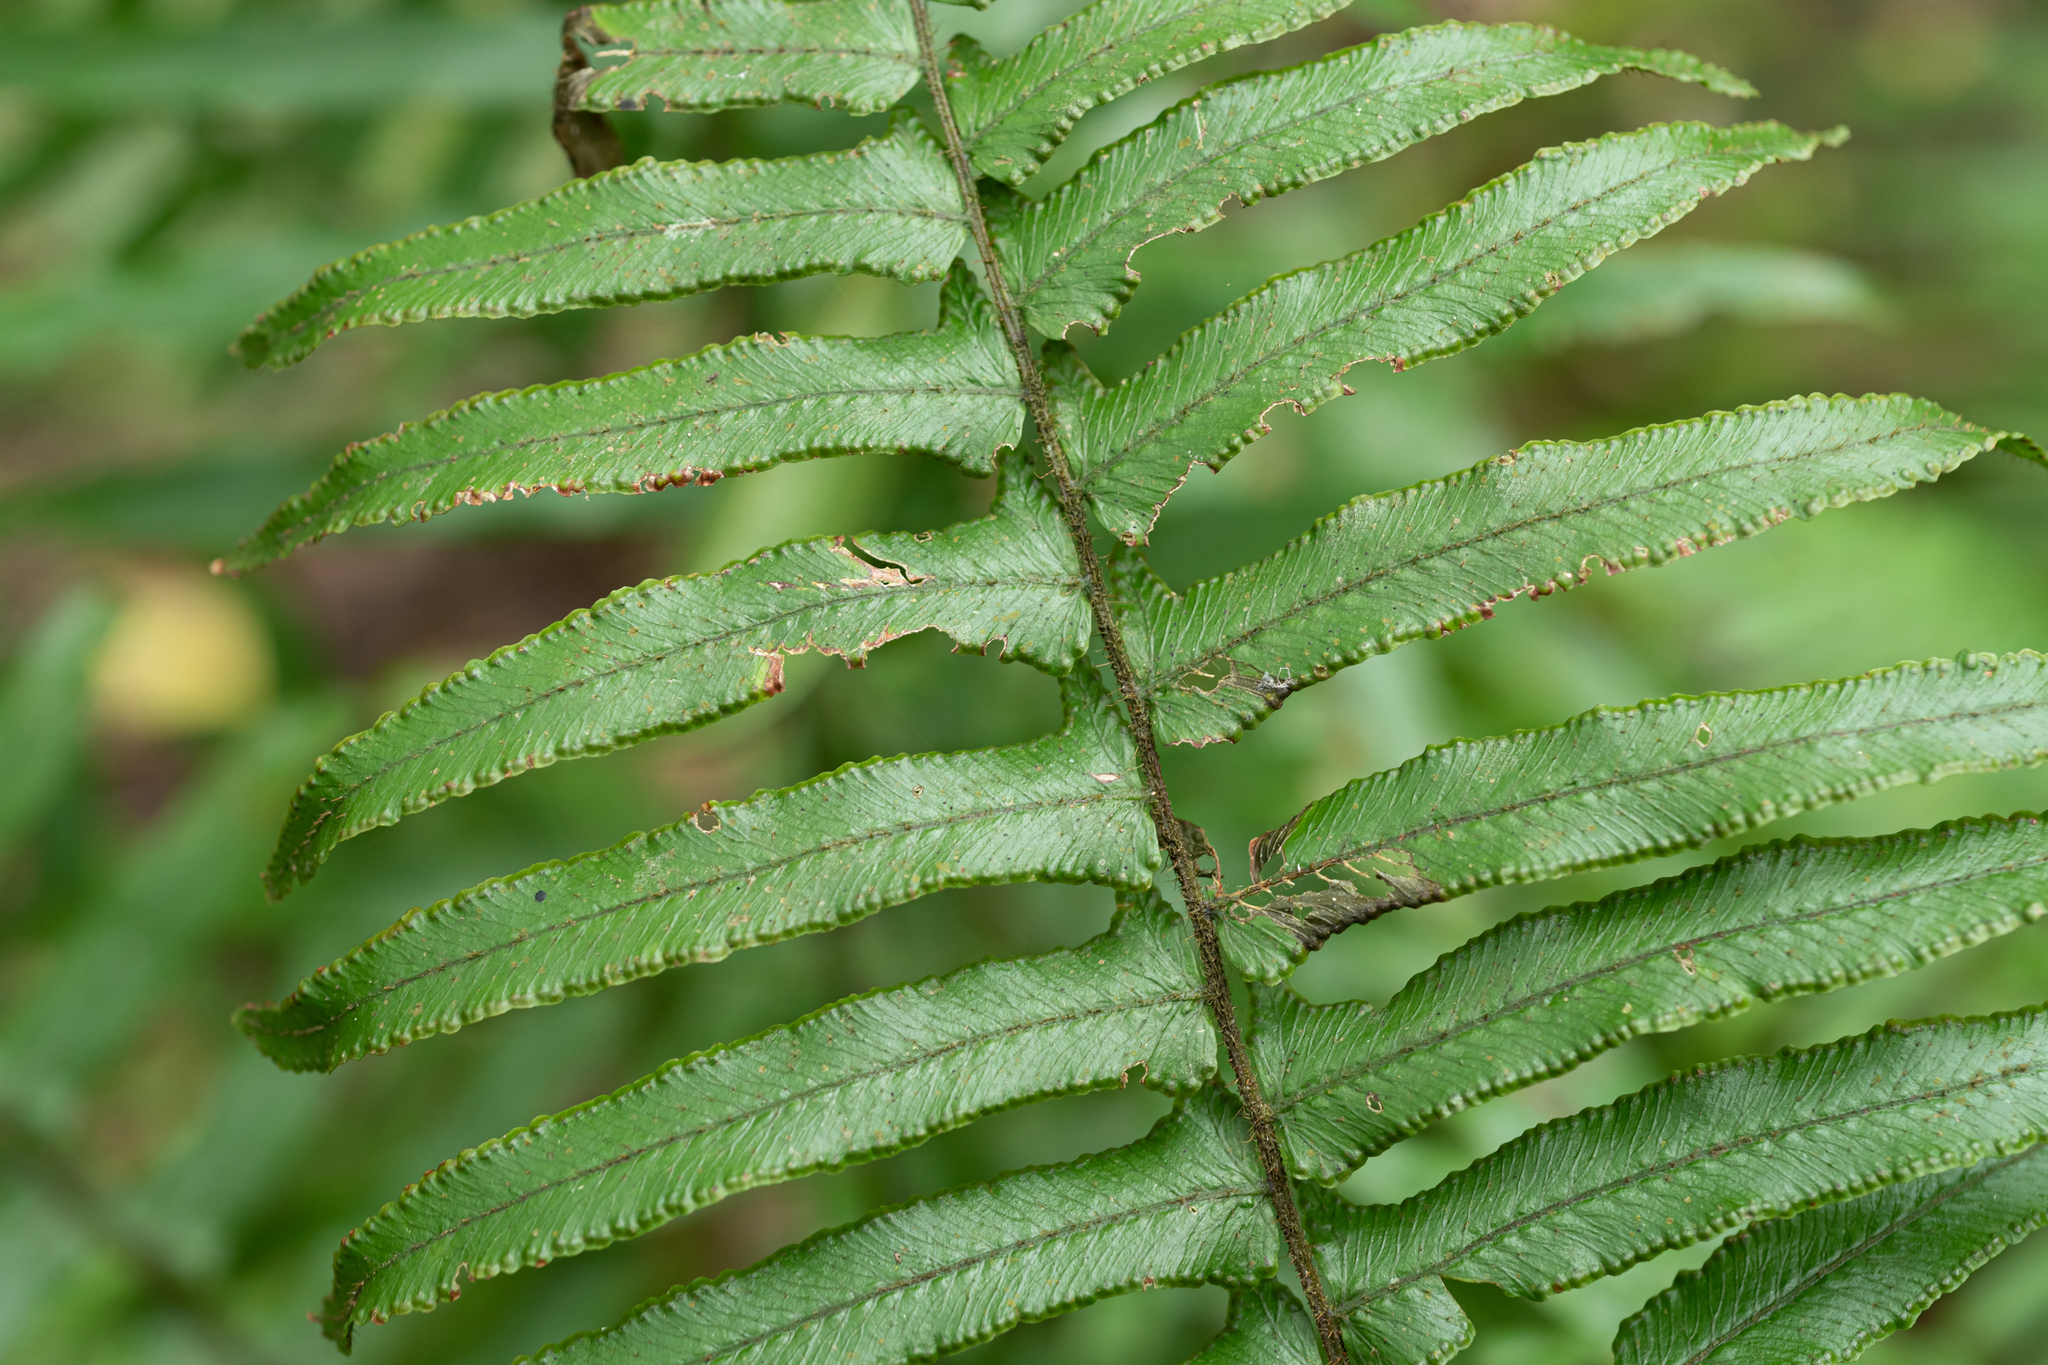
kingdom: Plantae
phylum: Tracheophyta
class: Polypodiopsida
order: Polypodiales
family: Dennstaedtiaceae
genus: Microlepia
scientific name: Microlepia hookeriana
